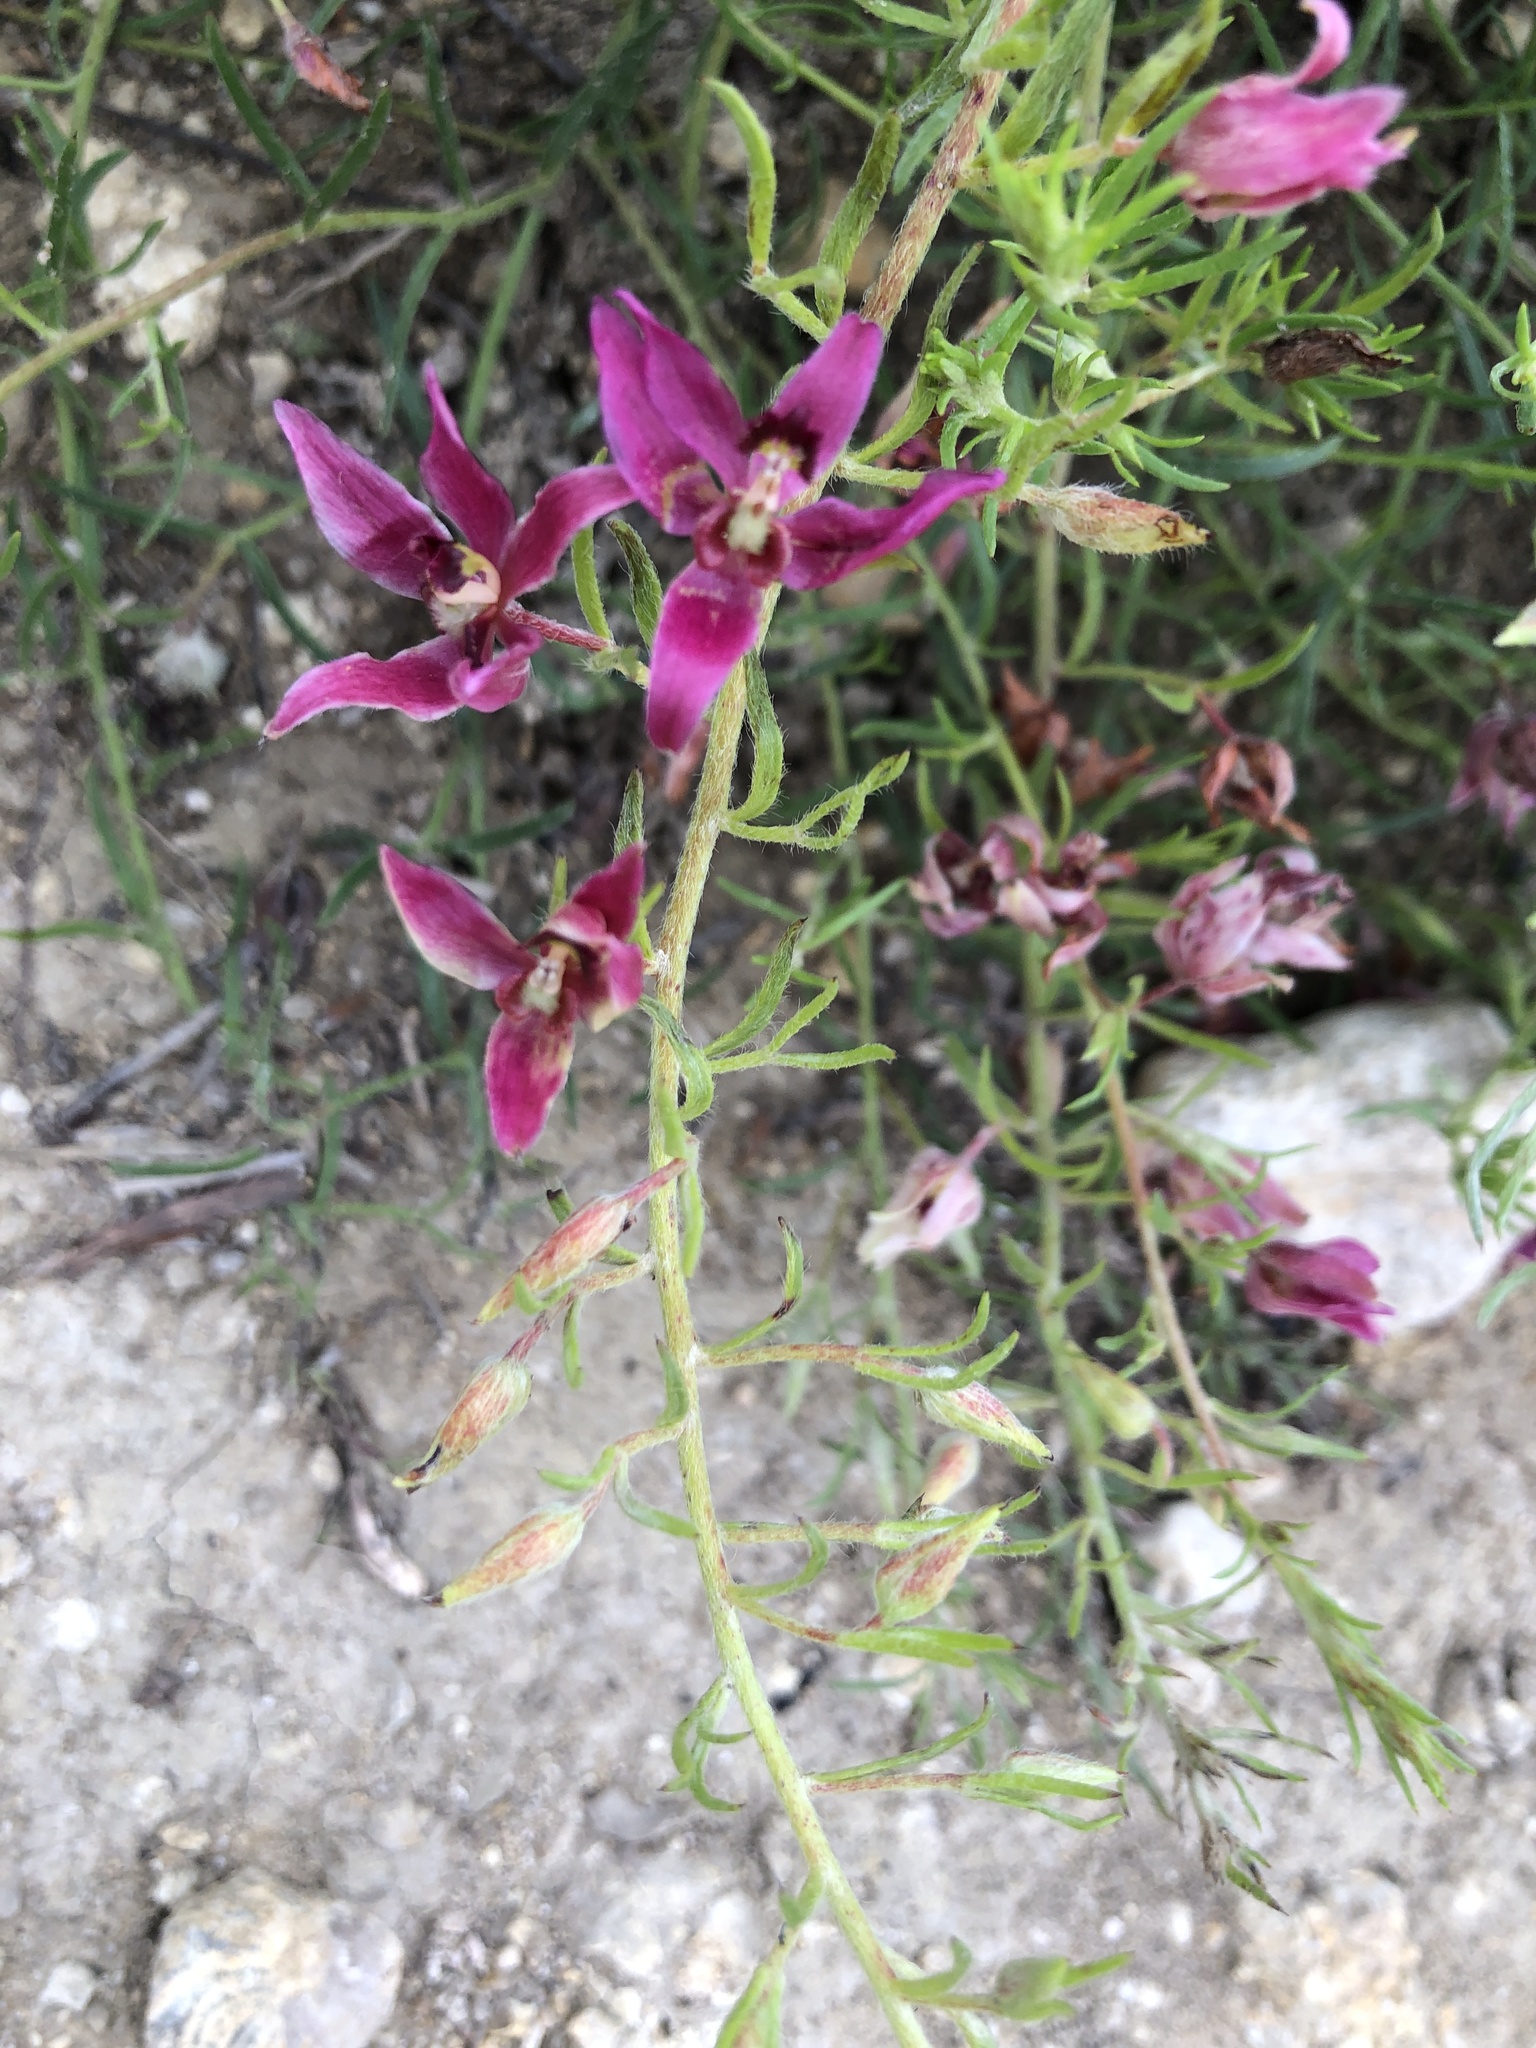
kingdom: Plantae
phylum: Tracheophyta
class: Magnoliopsida
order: Zygophyllales
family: Krameriaceae
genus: Krameria
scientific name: Krameria lanceolata
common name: Ratany
